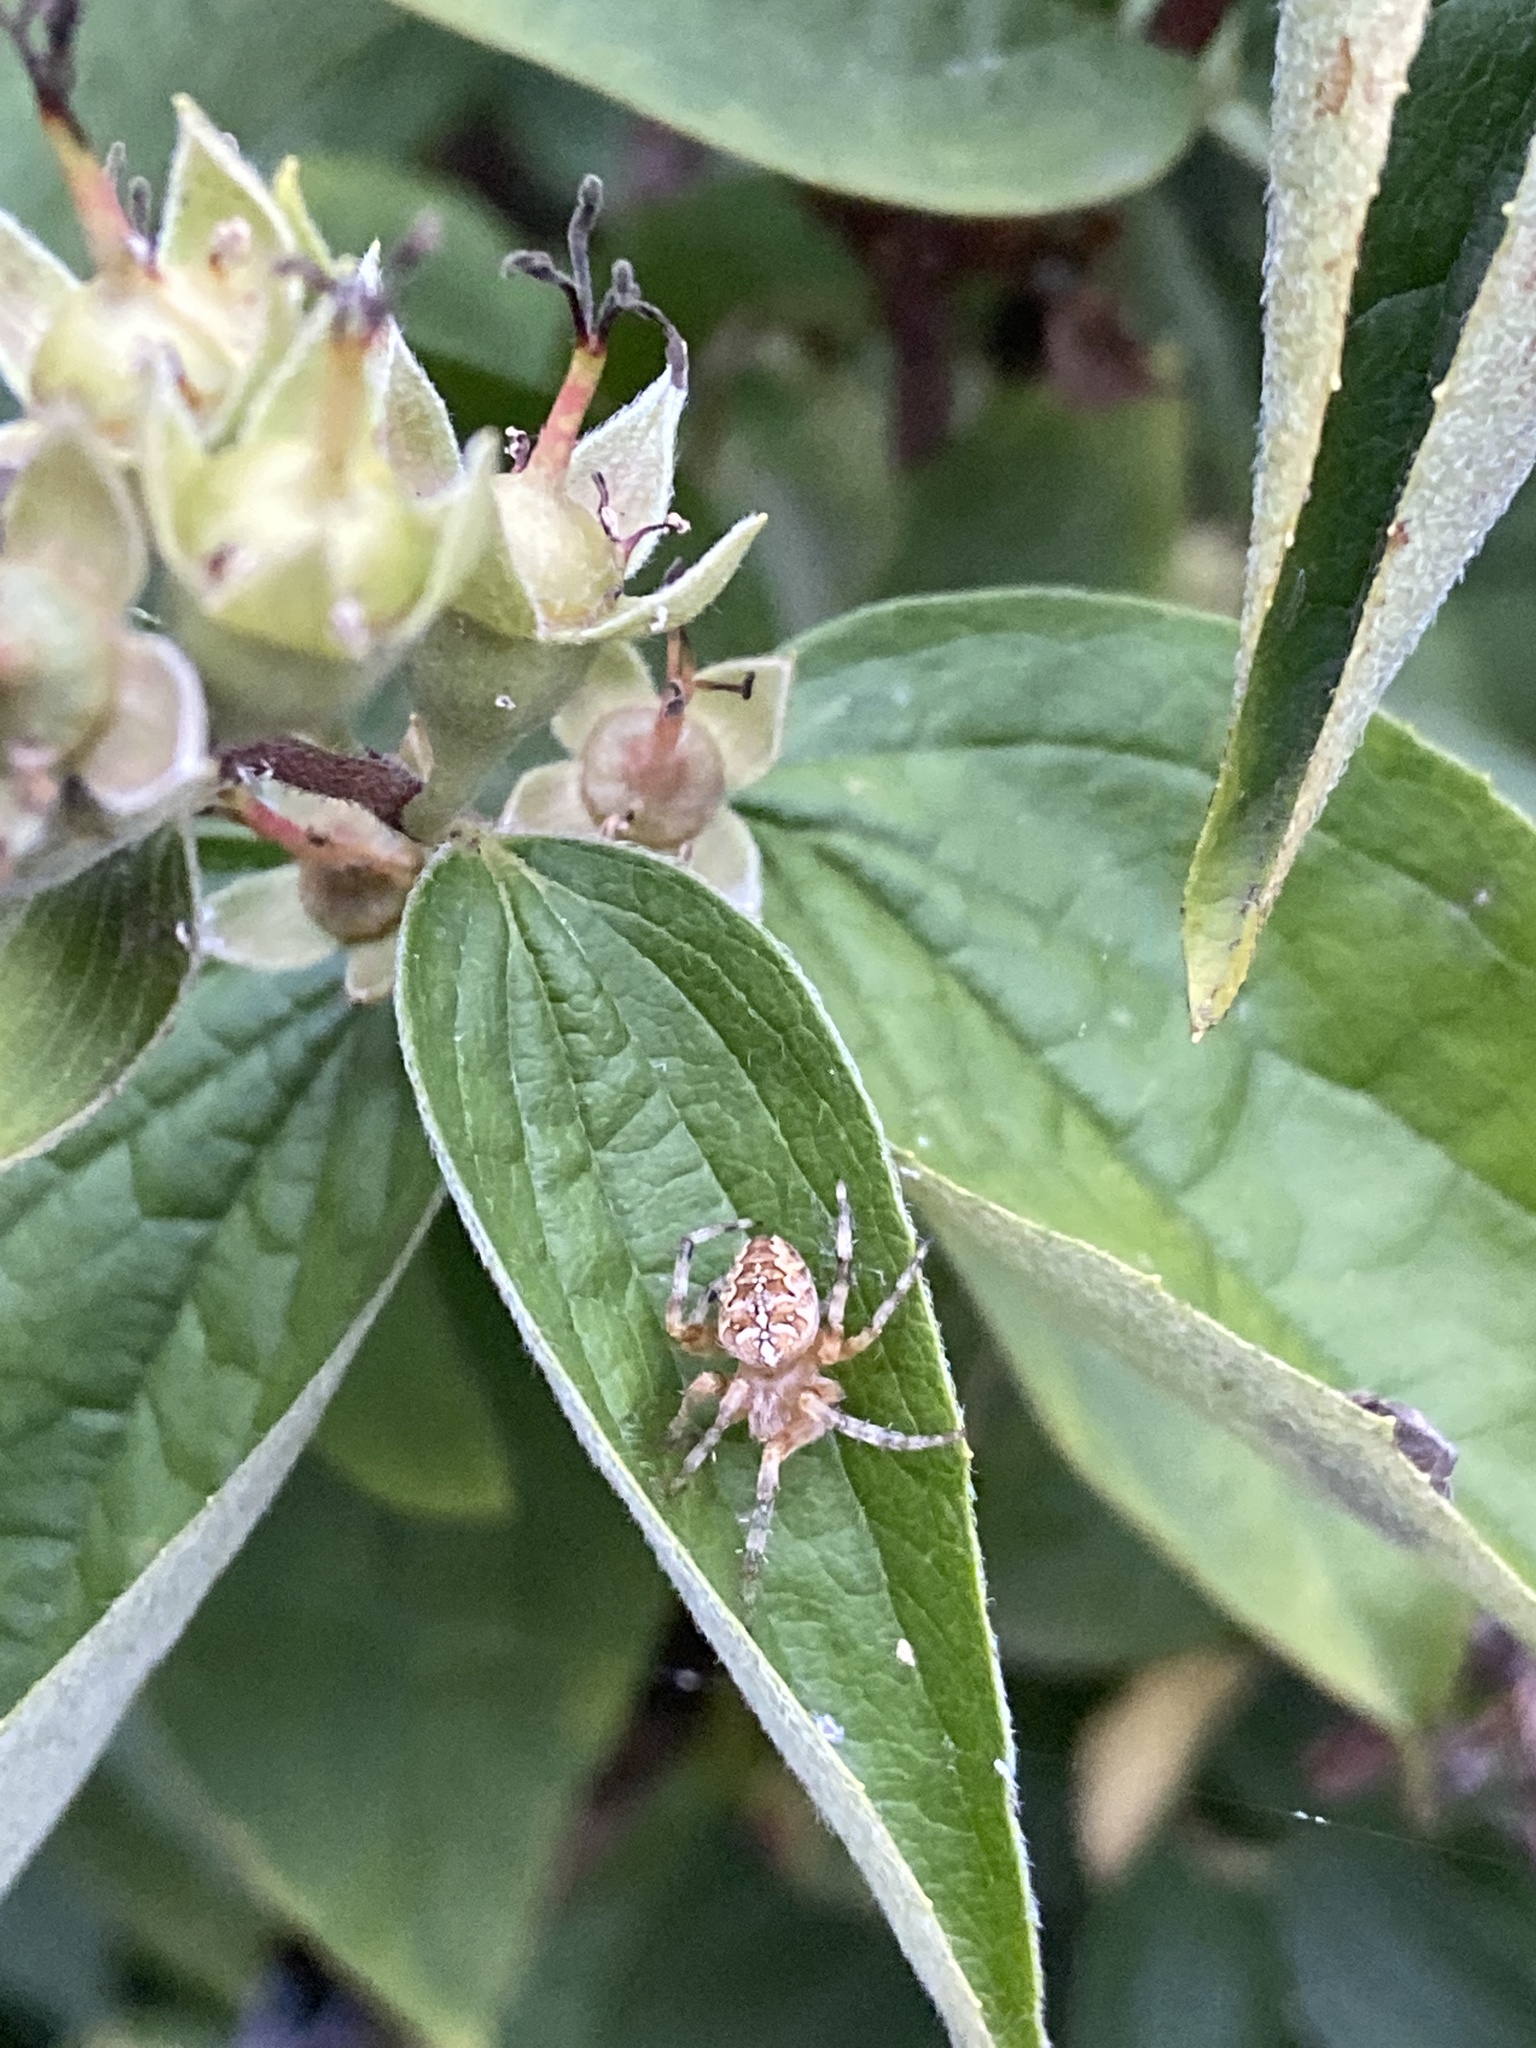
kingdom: Animalia
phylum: Arthropoda
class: Arachnida
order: Araneae
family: Araneidae
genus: Araneus
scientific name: Araneus diadematus
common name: Cross orbweaver
